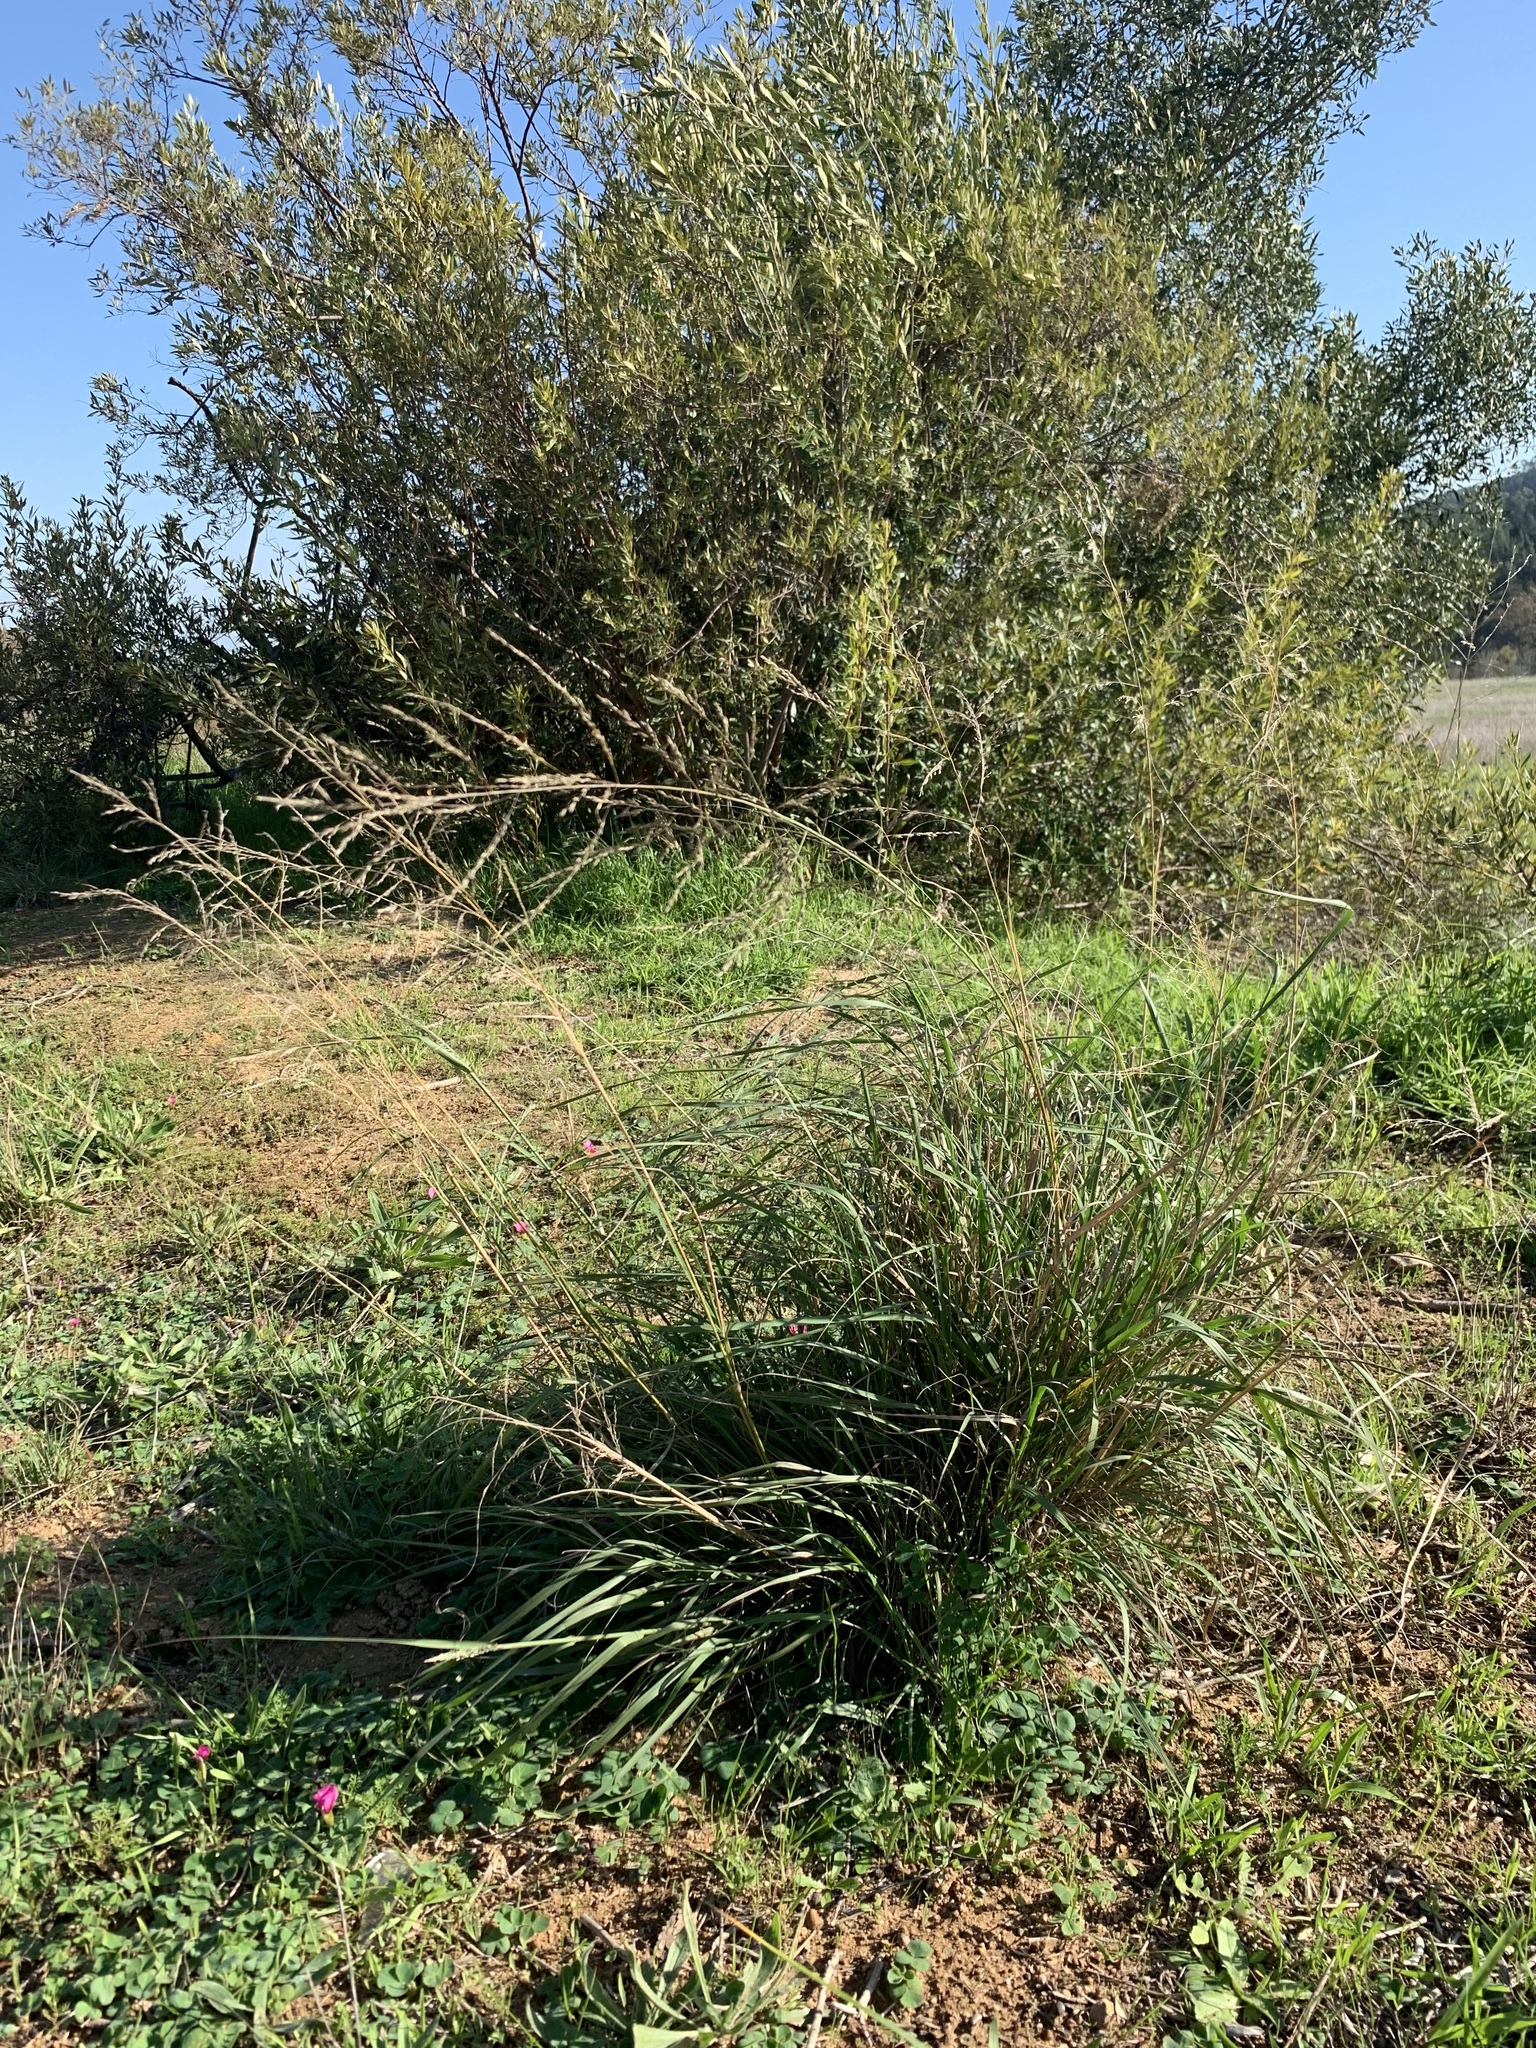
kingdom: Plantae
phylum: Tracheophyta
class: Liliopsida
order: Poales
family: Poaceae
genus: Eragrostis
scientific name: Eragrostis curvula
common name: African love-grass
